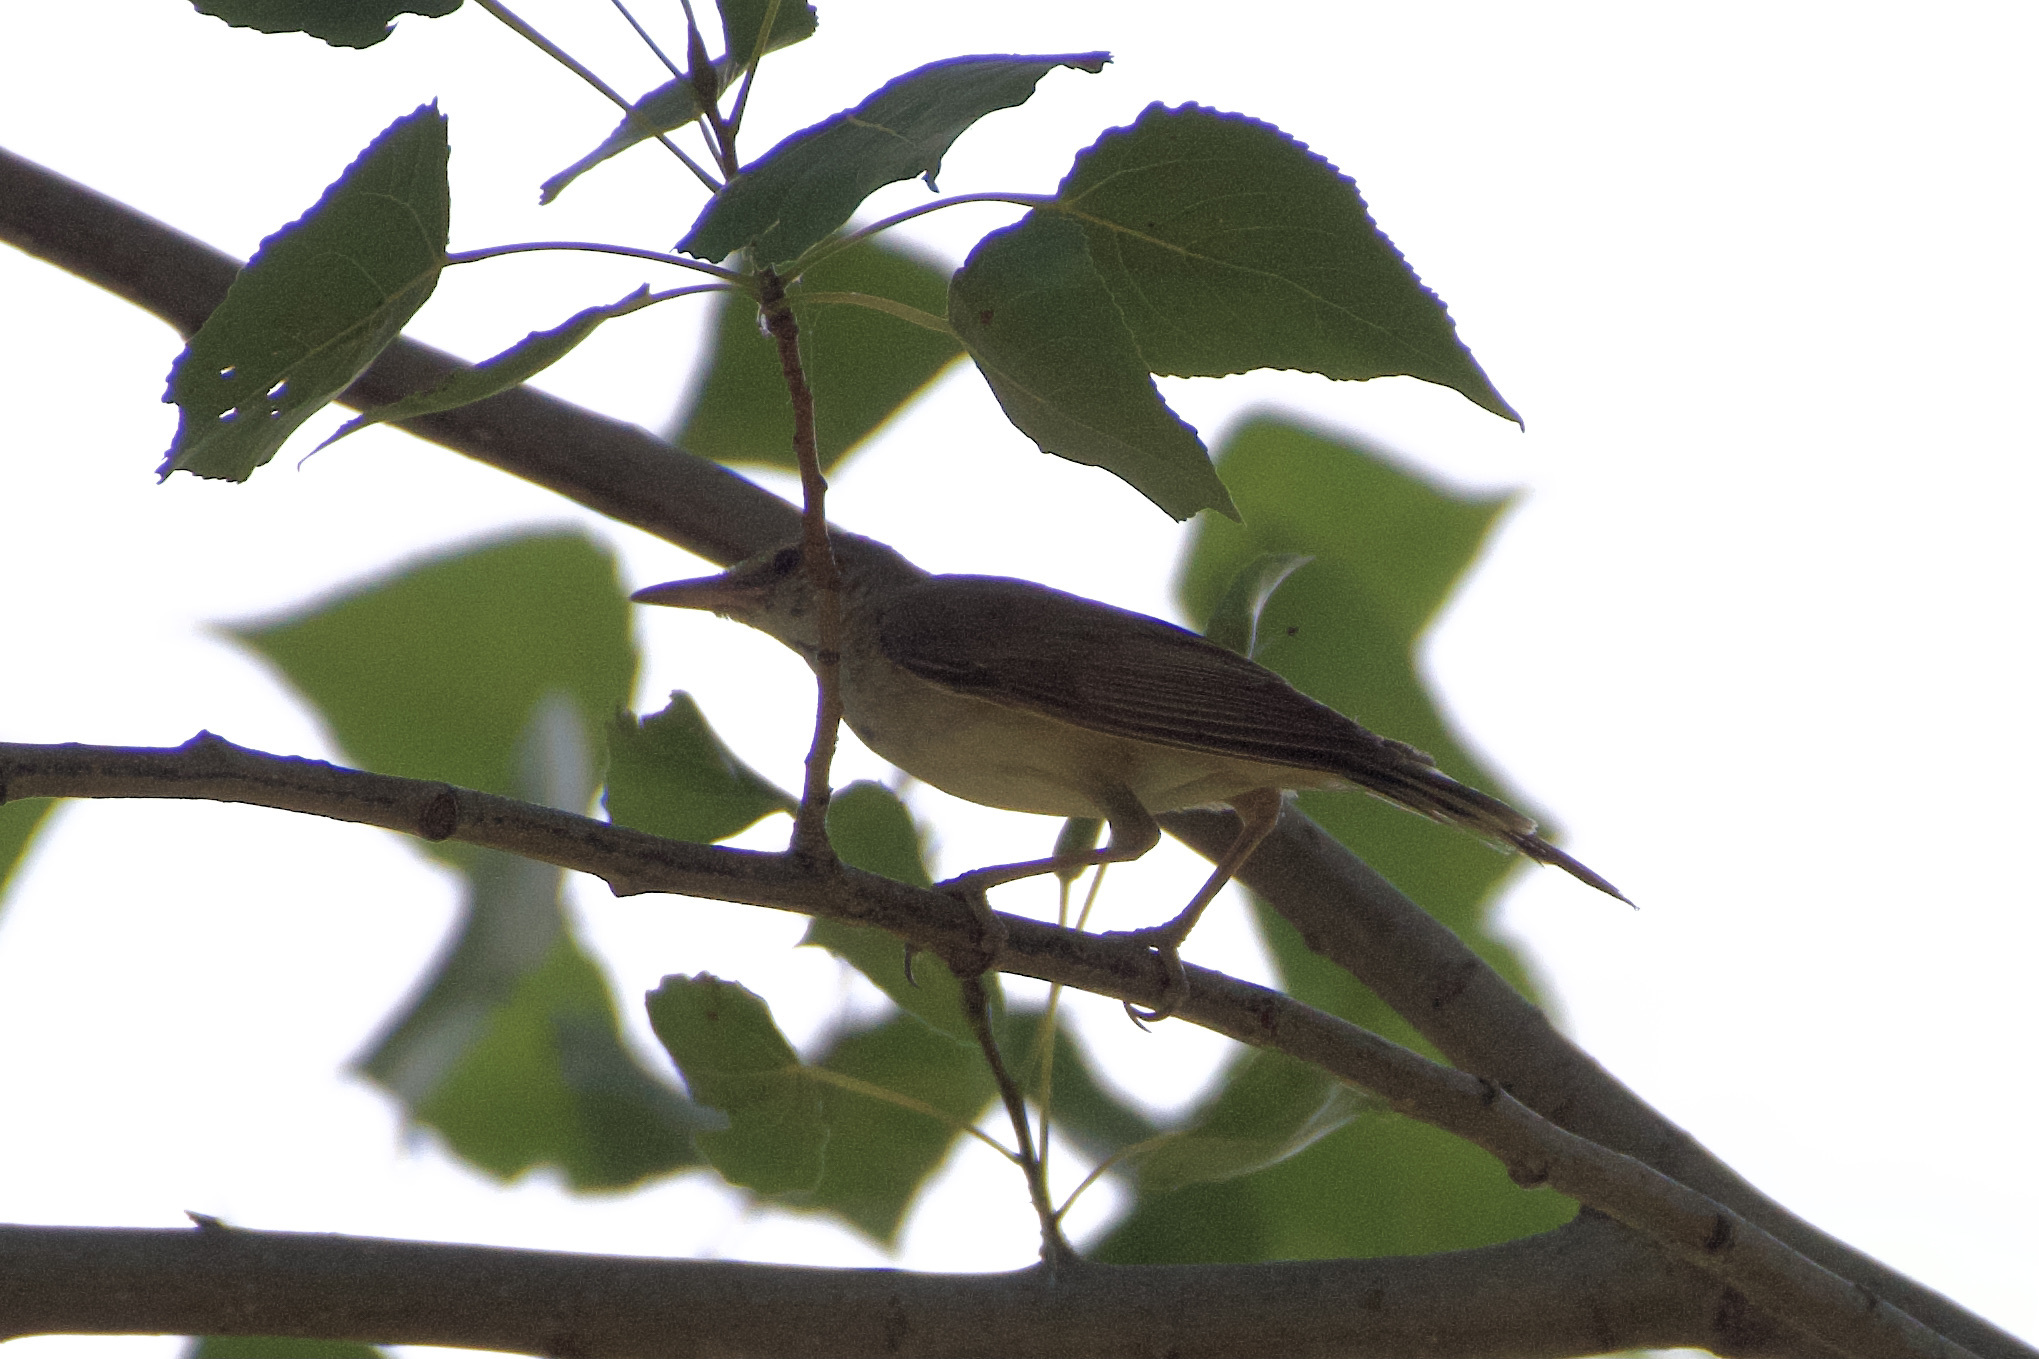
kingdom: Animalia
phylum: Chordata
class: Aves
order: Passeriformes
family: Acrocephalidae
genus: Acrocephalus
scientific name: Acrocephalus arundinaceus
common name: Great reed warbler
